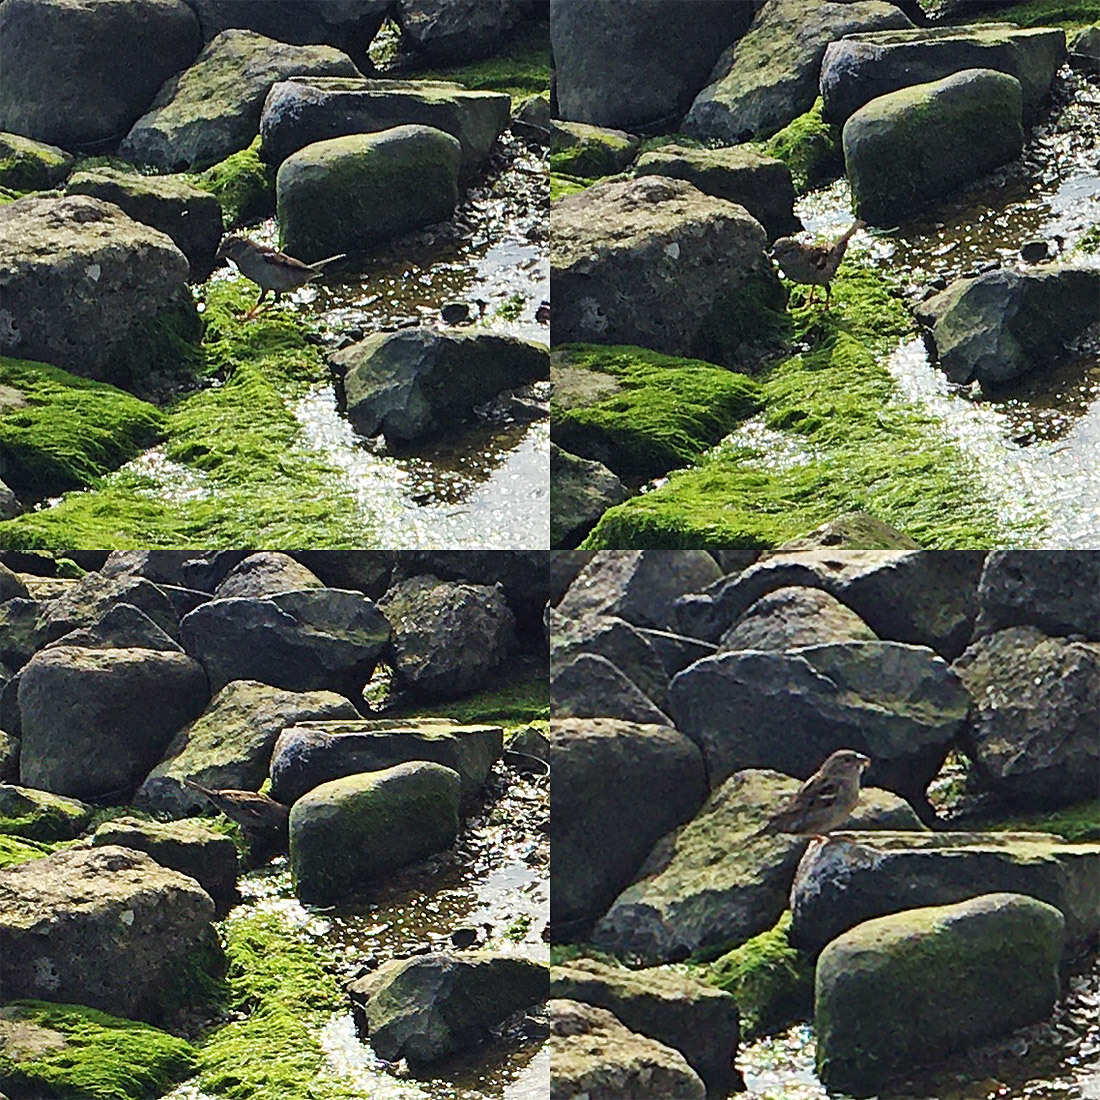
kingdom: Animalia
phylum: Chordata
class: Aves
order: Passeriformes
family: Passeridae
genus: Passer
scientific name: Passer domesticus
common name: House sparrow
